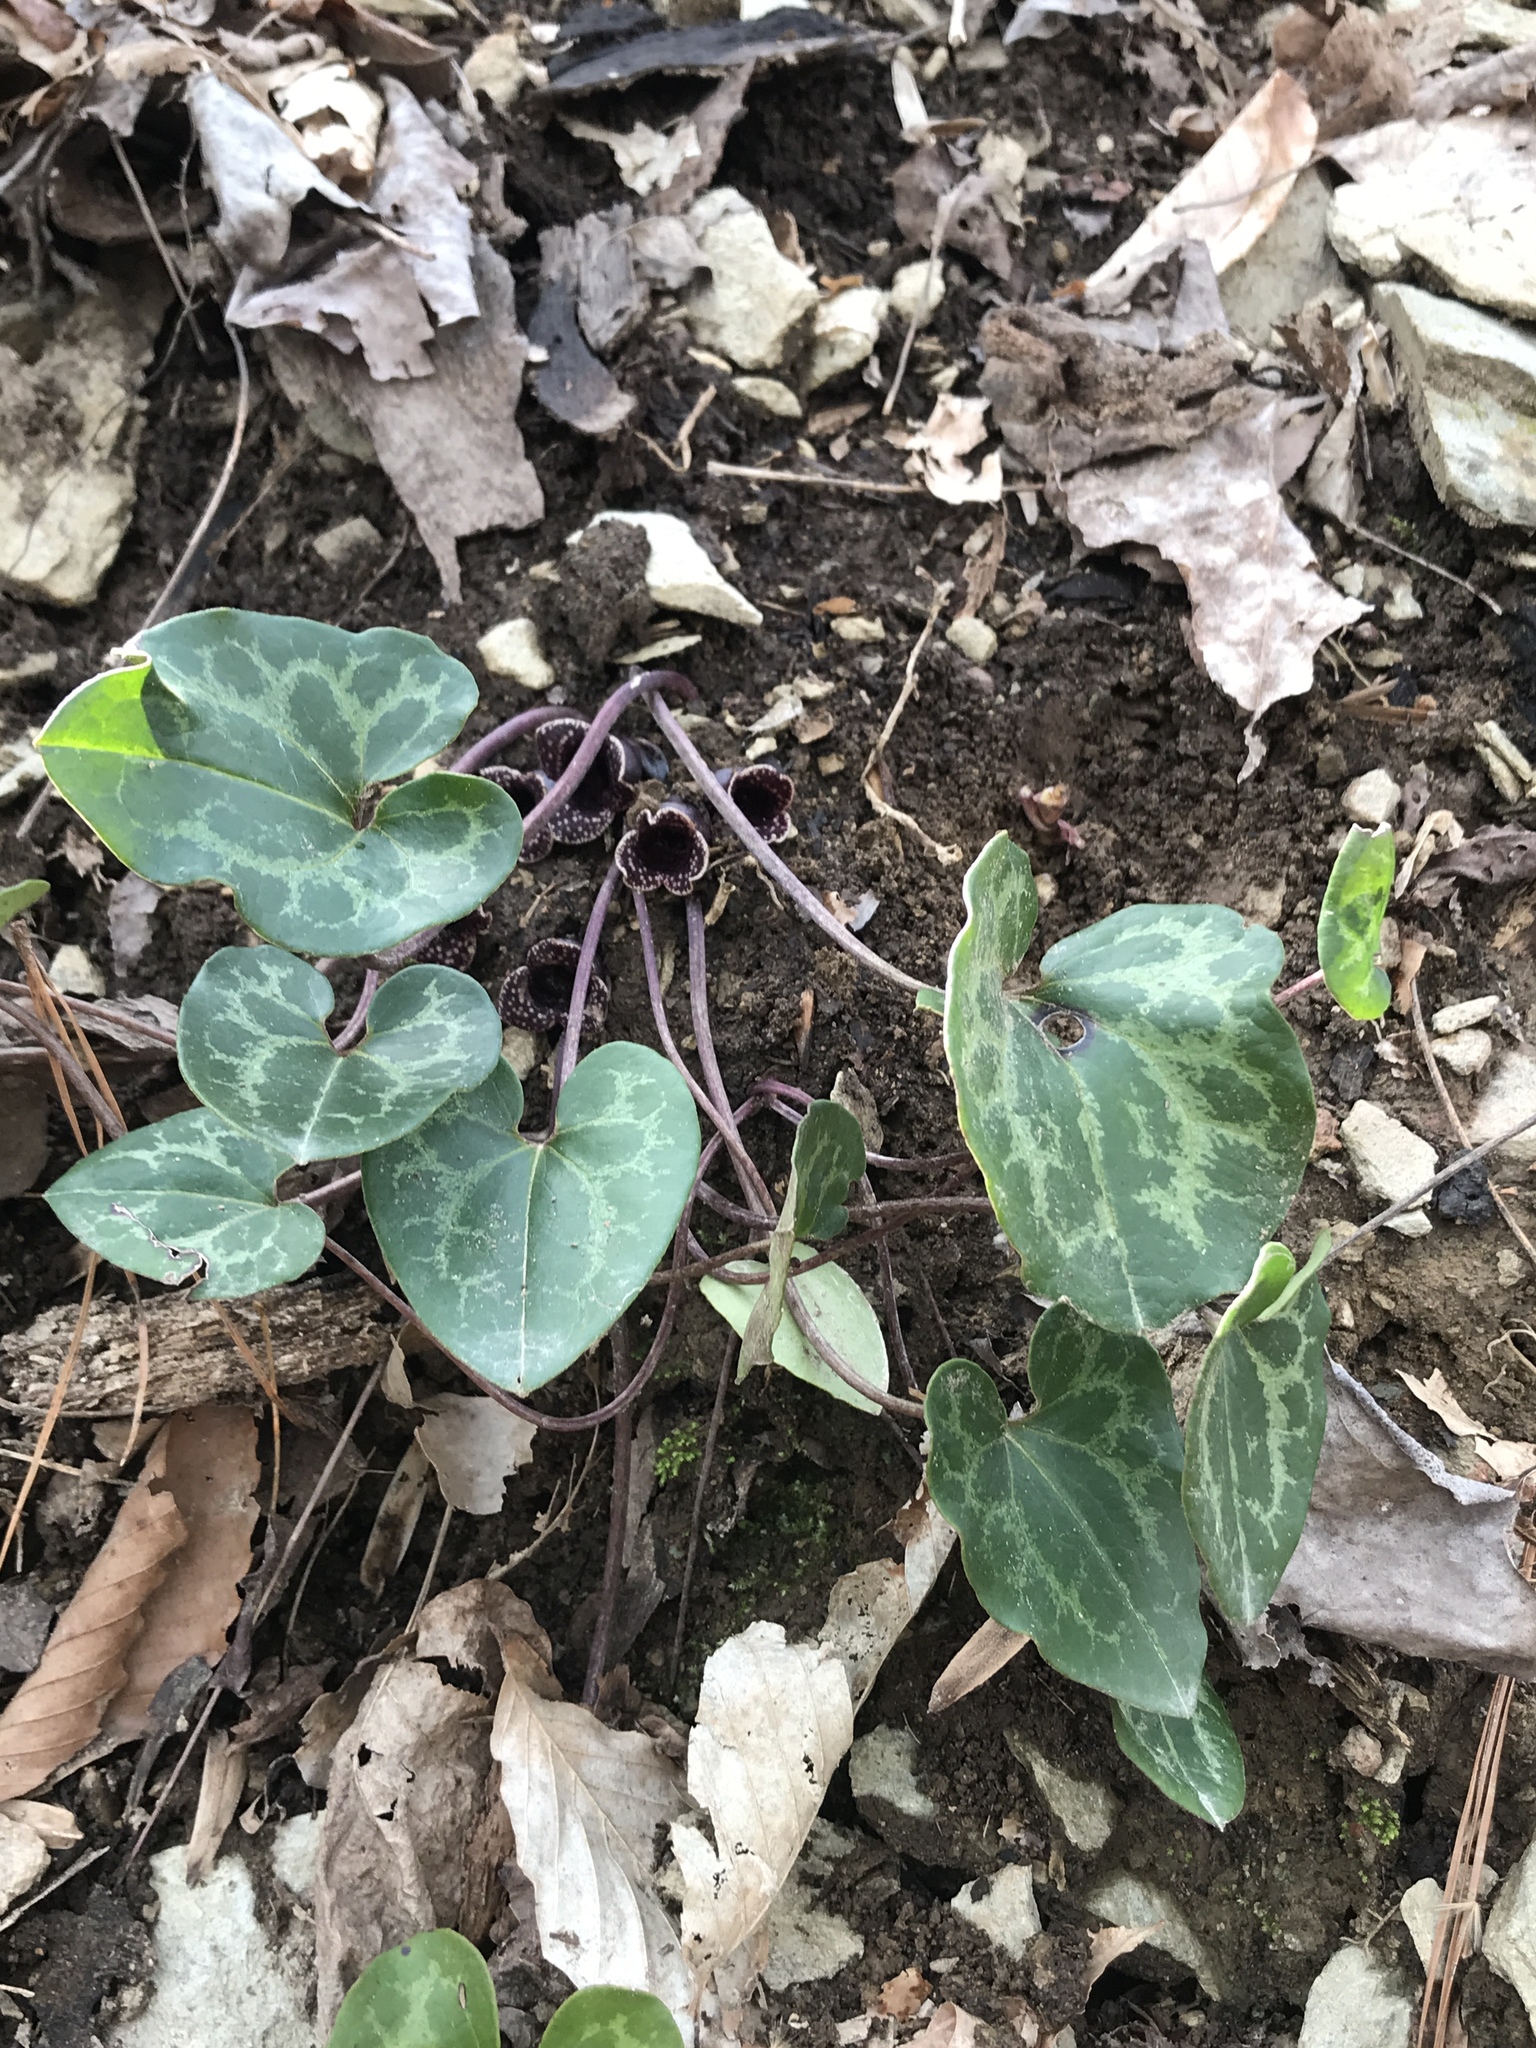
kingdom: Plantae
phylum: Tracheophyta
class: Magnoliopsida
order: Piperales
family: Aristolochiaceae
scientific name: Aristolochiaceae
